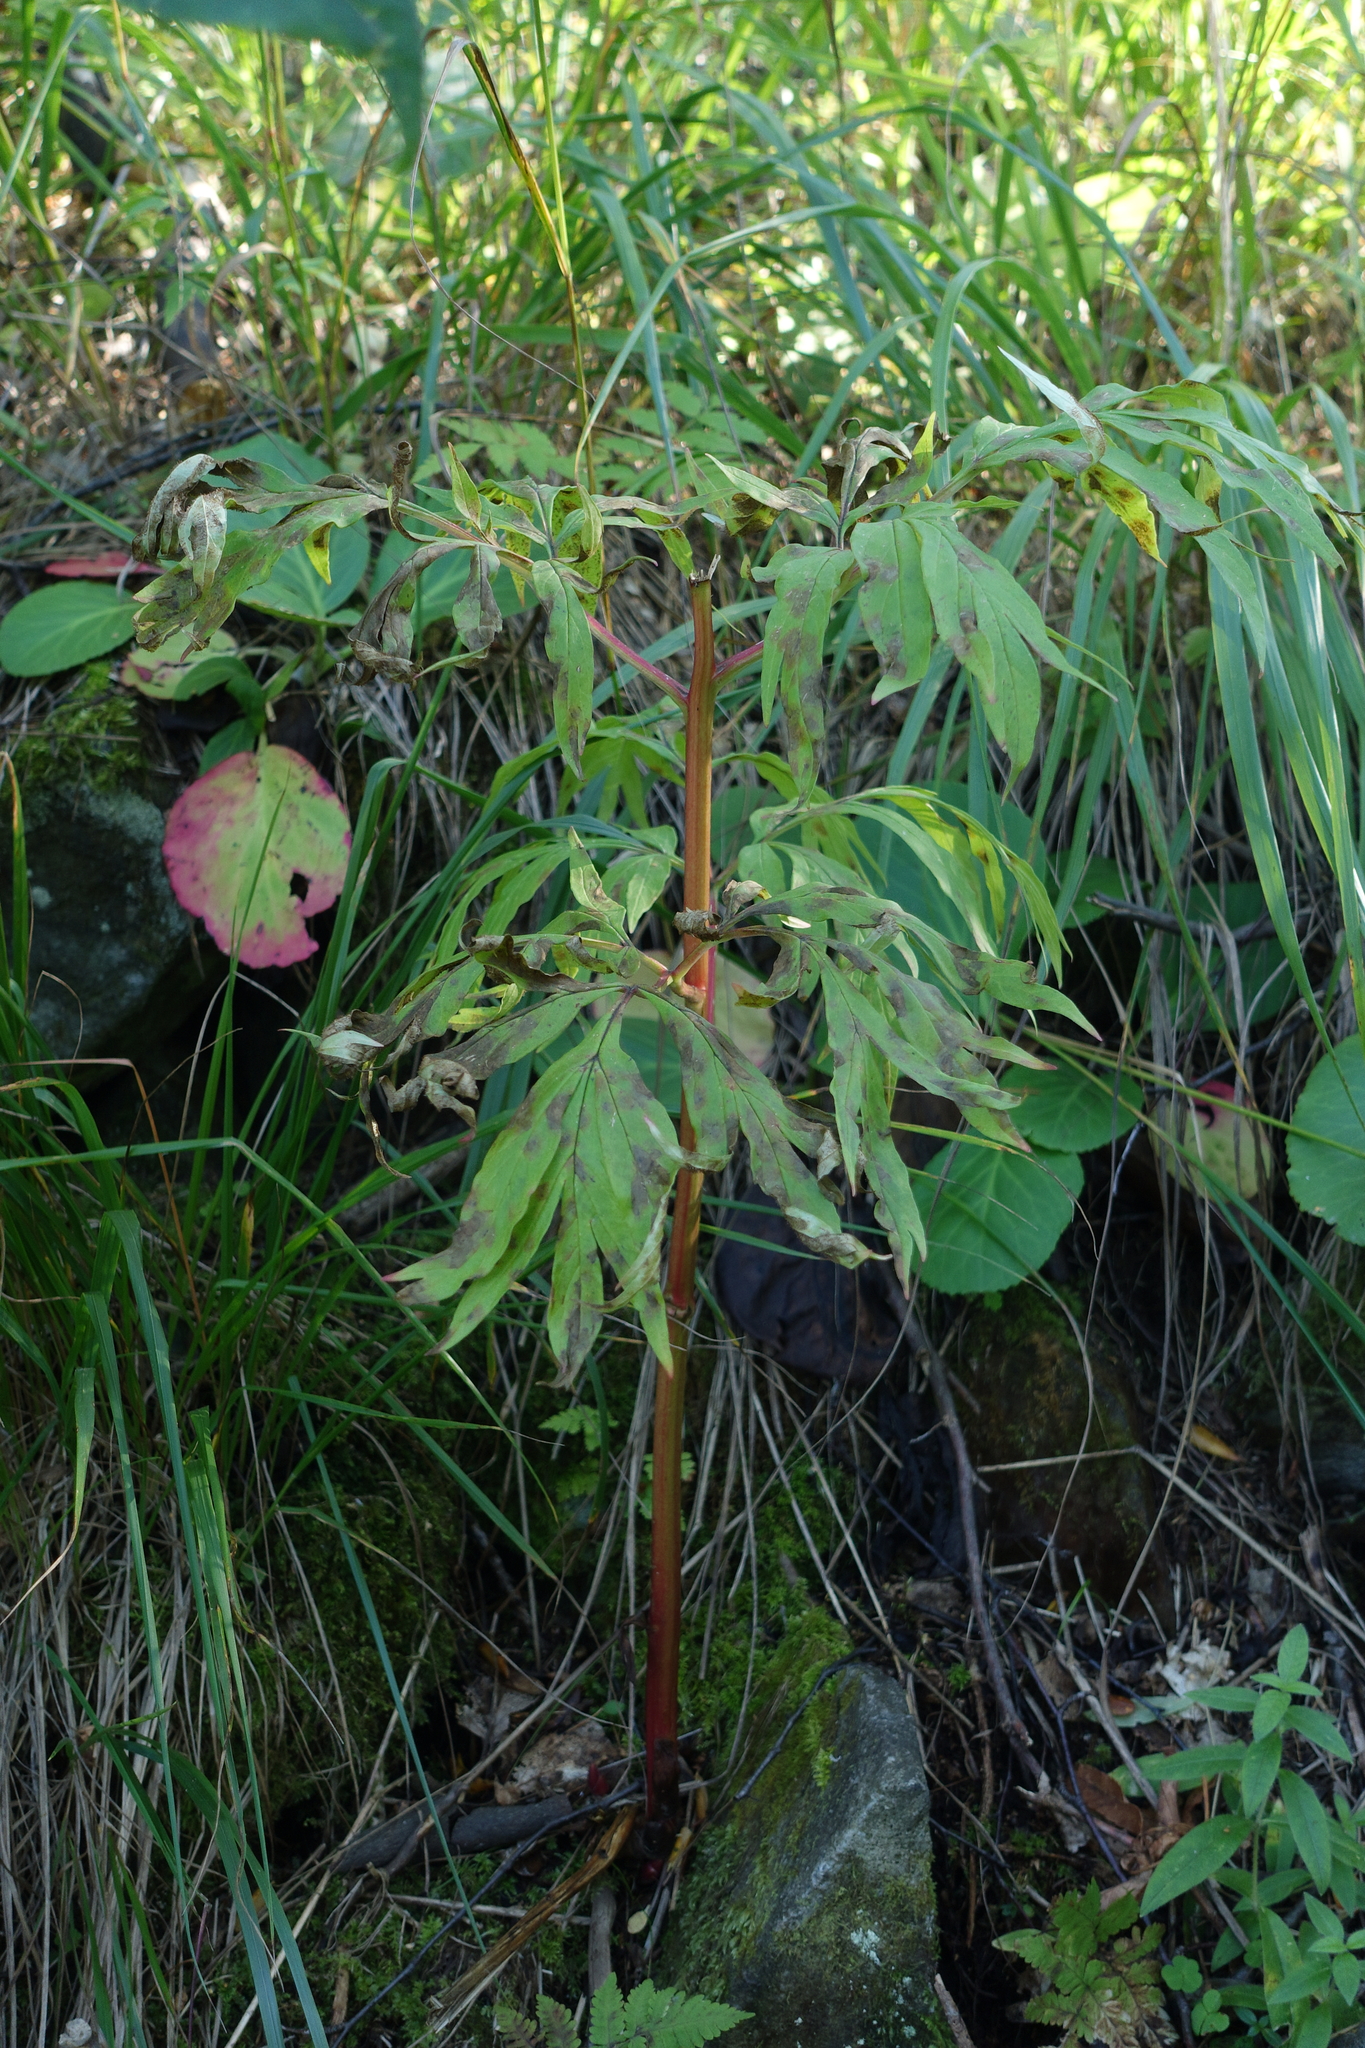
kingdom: Plantae
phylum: Tracheophyta
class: Magnoliopsida
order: Saxifragales
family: Paeoniaceae
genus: Paeonia
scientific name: Paeonia anomala
